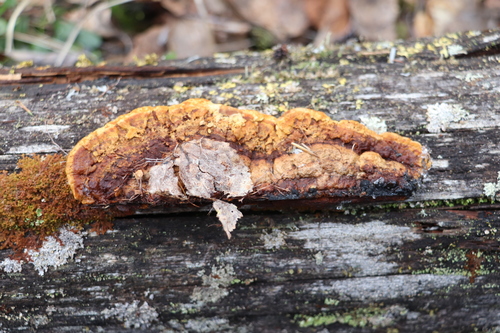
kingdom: Fungi
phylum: Basidiomycota
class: Agaricomycetes
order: Gloeophyllales
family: Gloeophyllaceae
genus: Gloeophyllum
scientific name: Gloeophyllum protractum
